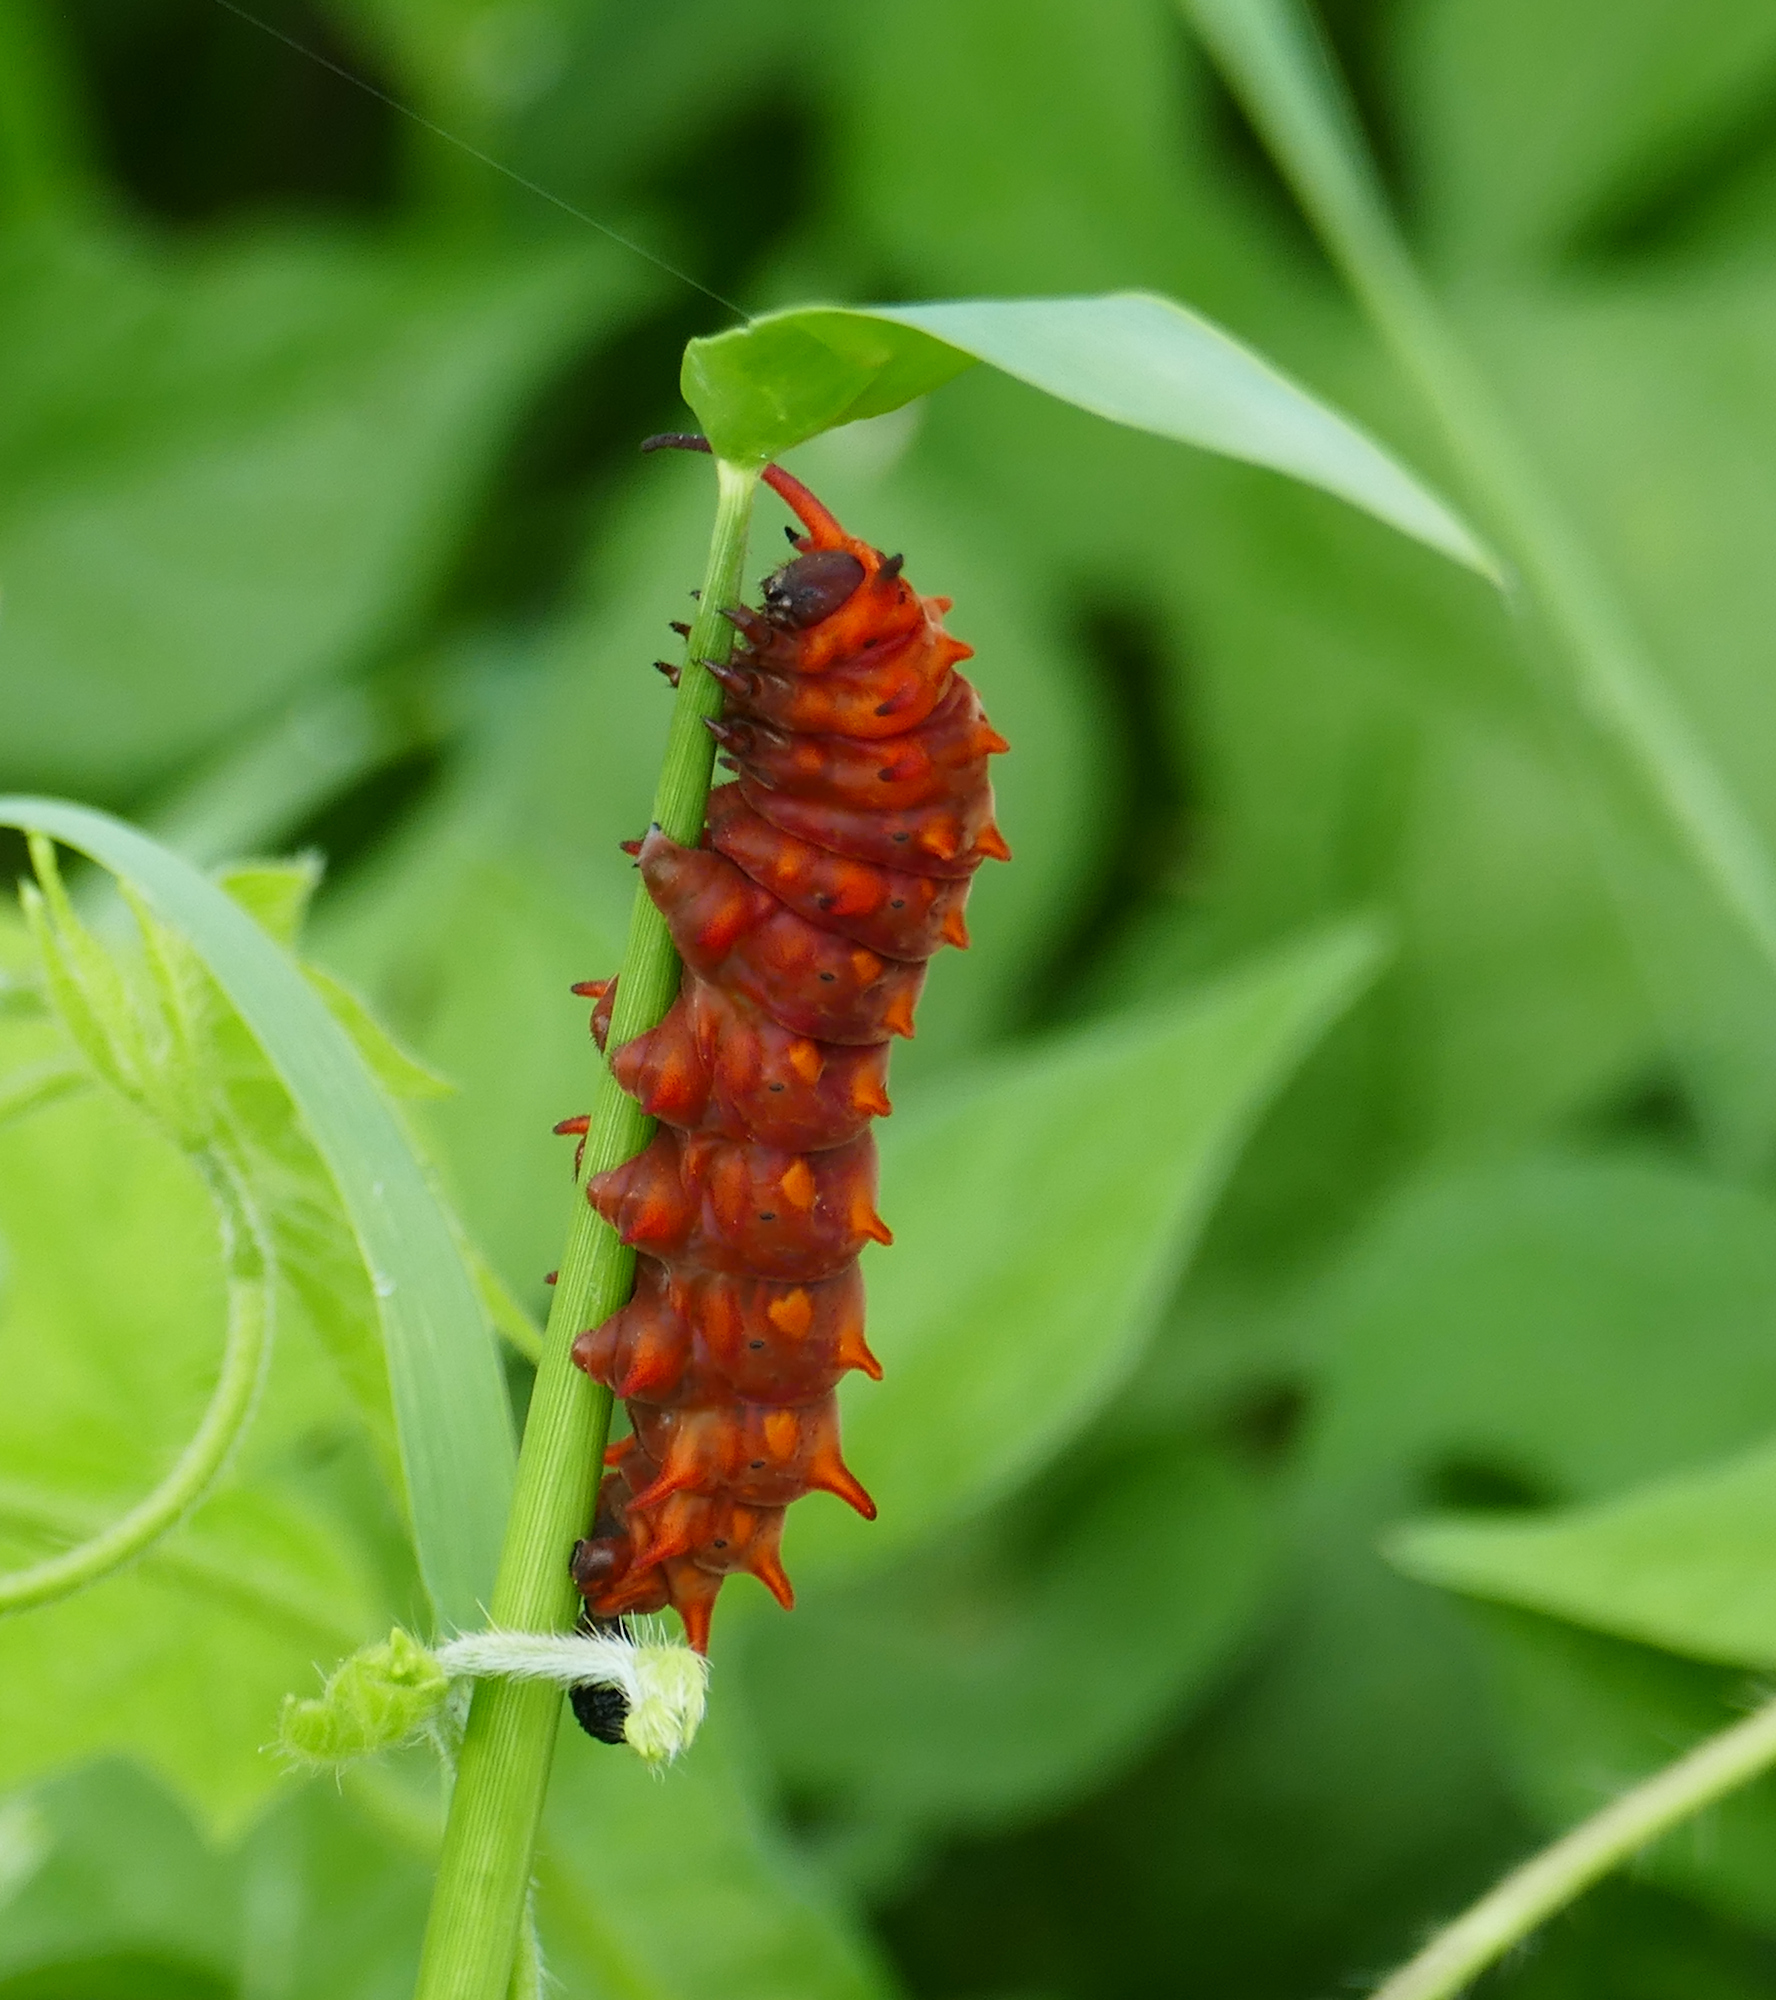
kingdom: Animalia
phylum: Arthropoda
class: Insecta
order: Lepidoptera
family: Papilionidae
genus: Battus
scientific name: Battus philenor
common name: Pipevine swallowtail
